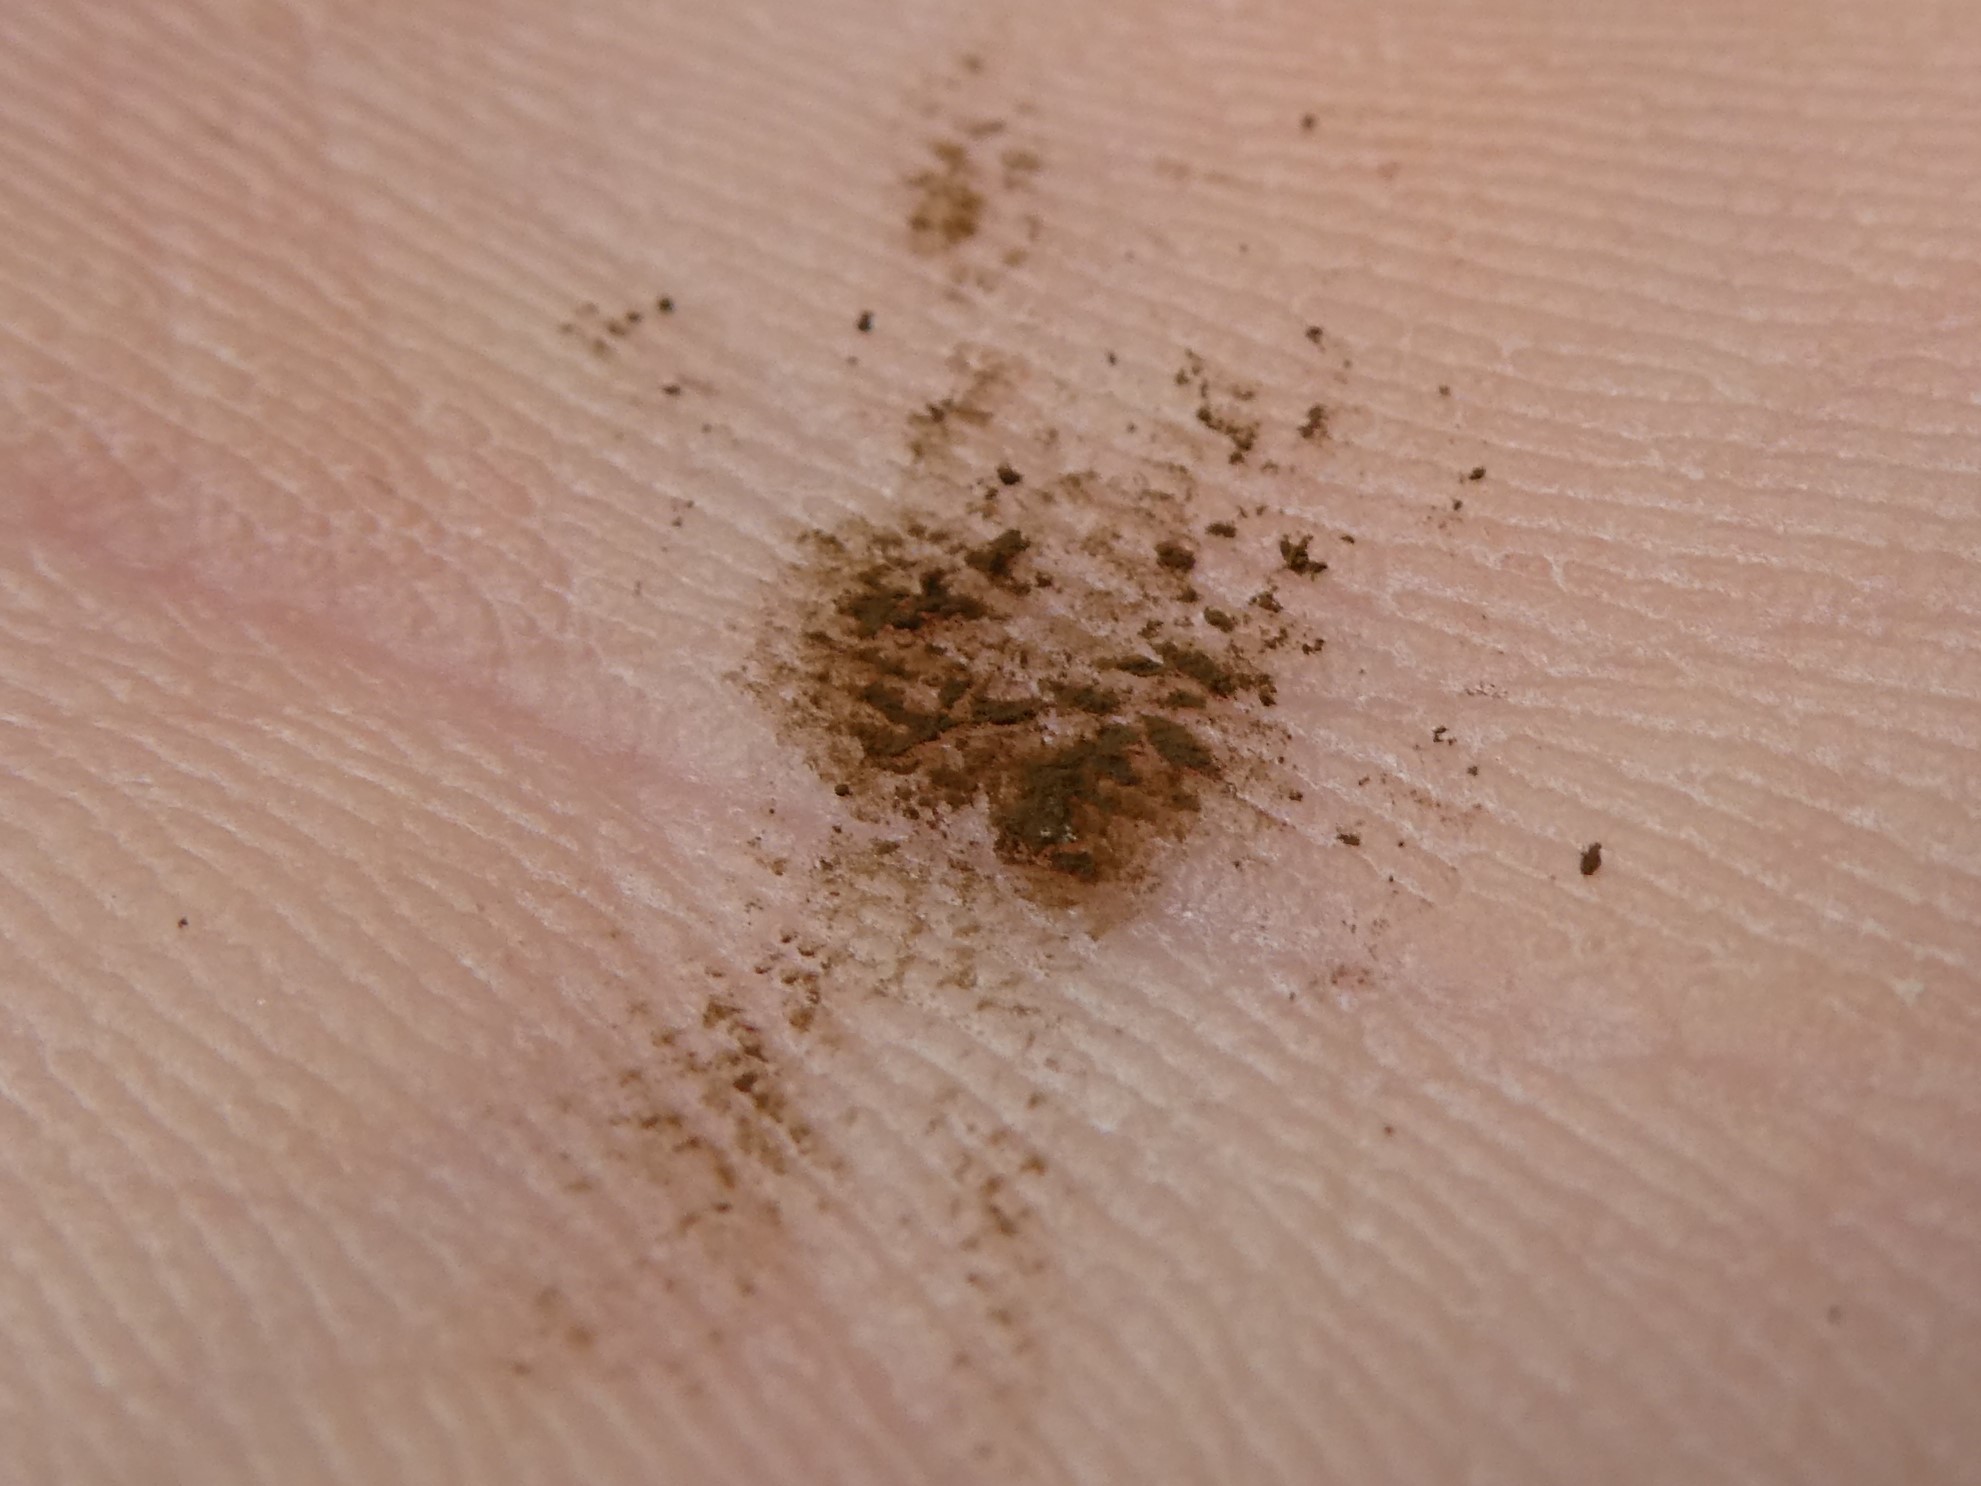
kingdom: Fungi
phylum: Basidiomycota
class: Atractiellomycetes
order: Atractiellales
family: Phleogenaceae
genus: Phleogena
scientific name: Phleogena faginea
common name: Fenugreek stalkball
